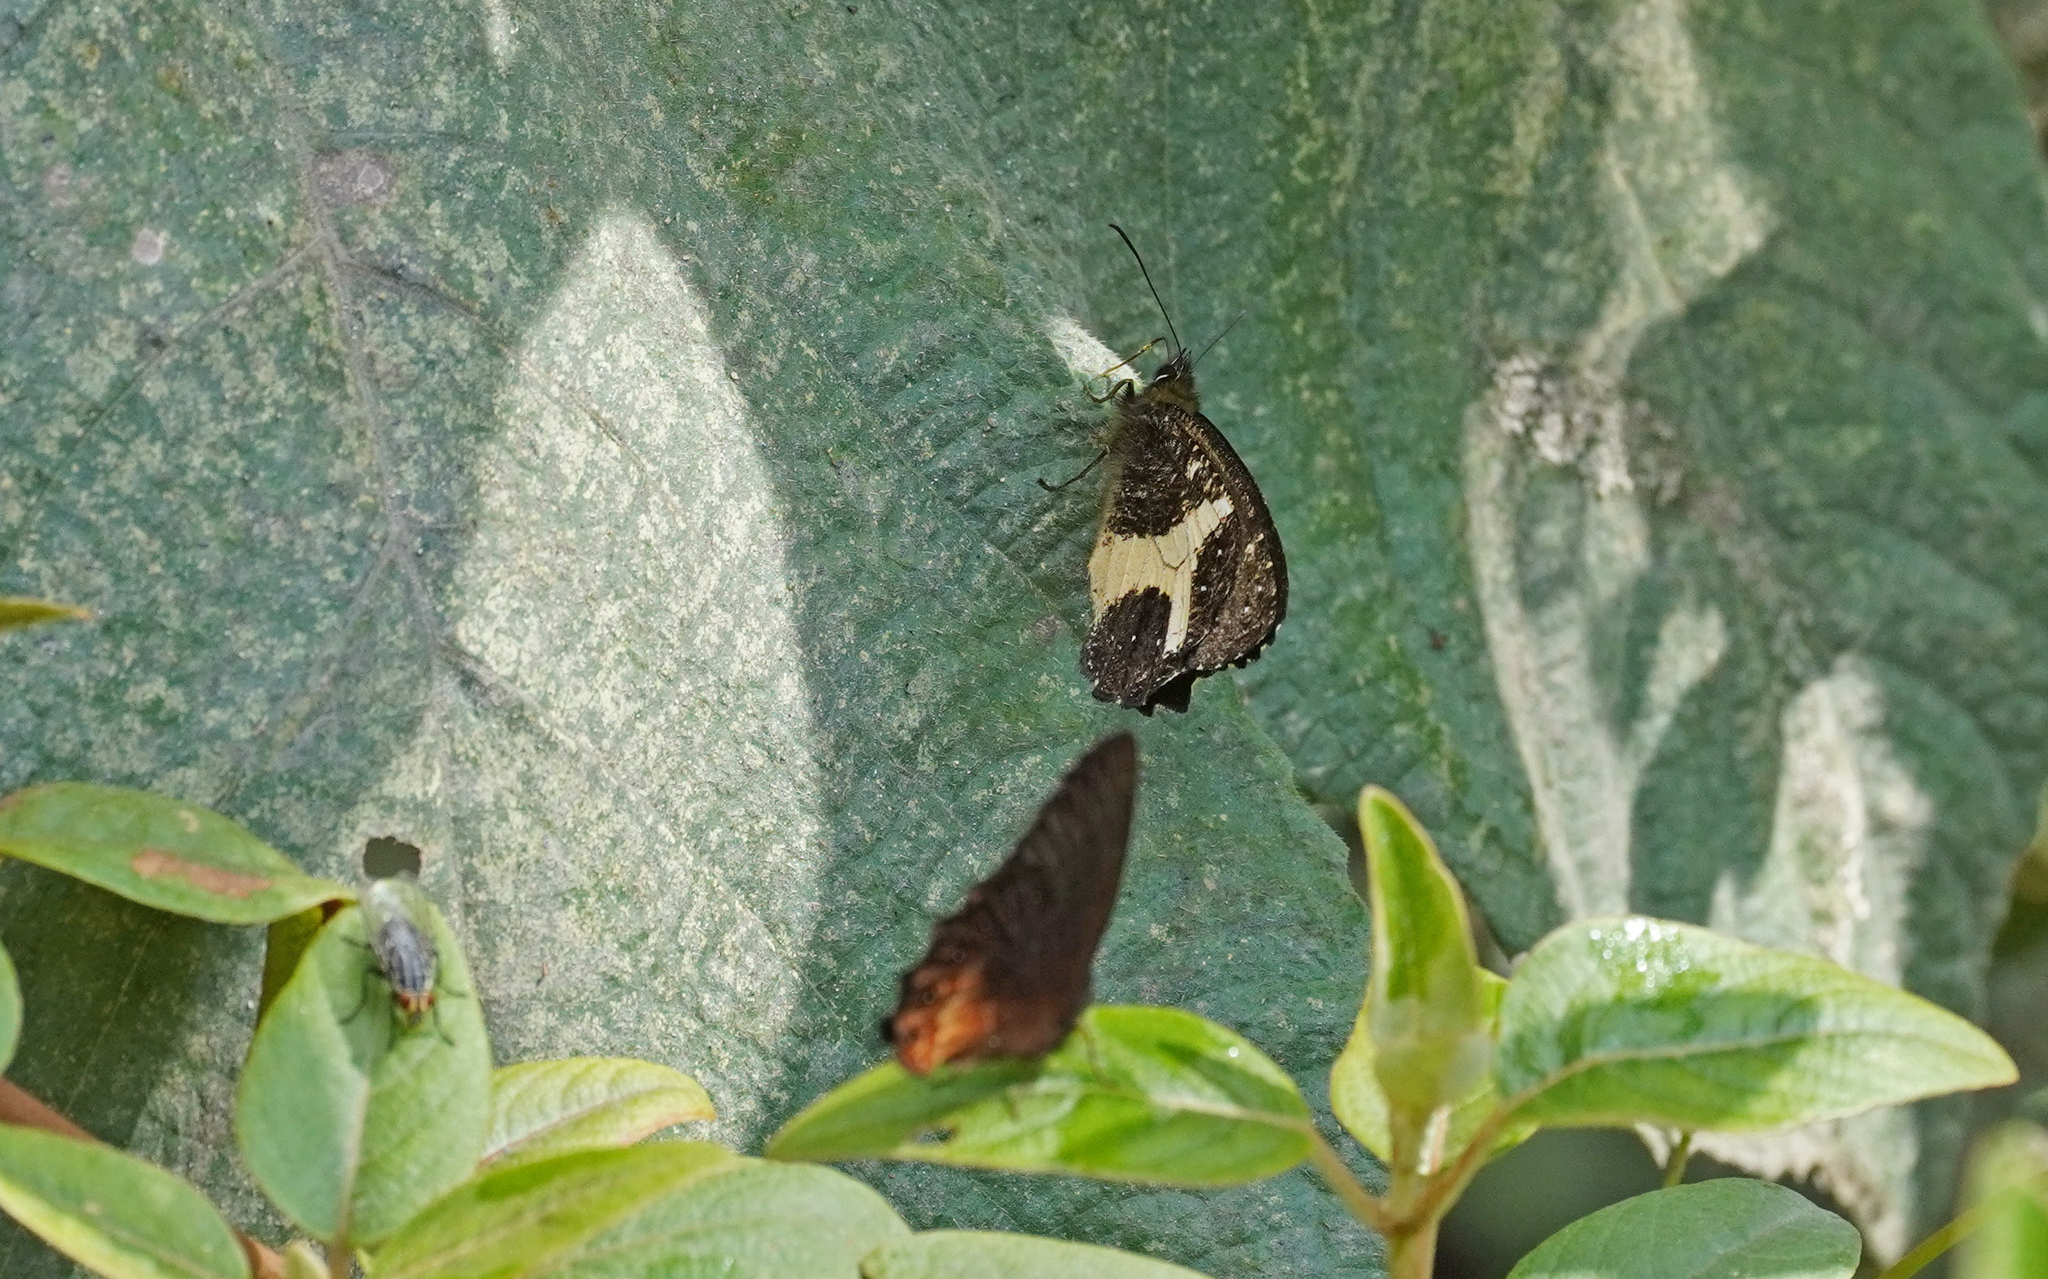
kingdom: Animalia
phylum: Arthropoda
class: Insecta
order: Lepidoptera
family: Nymphalidae
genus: Antopedaliodes
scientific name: Antopedaliodes antonia
